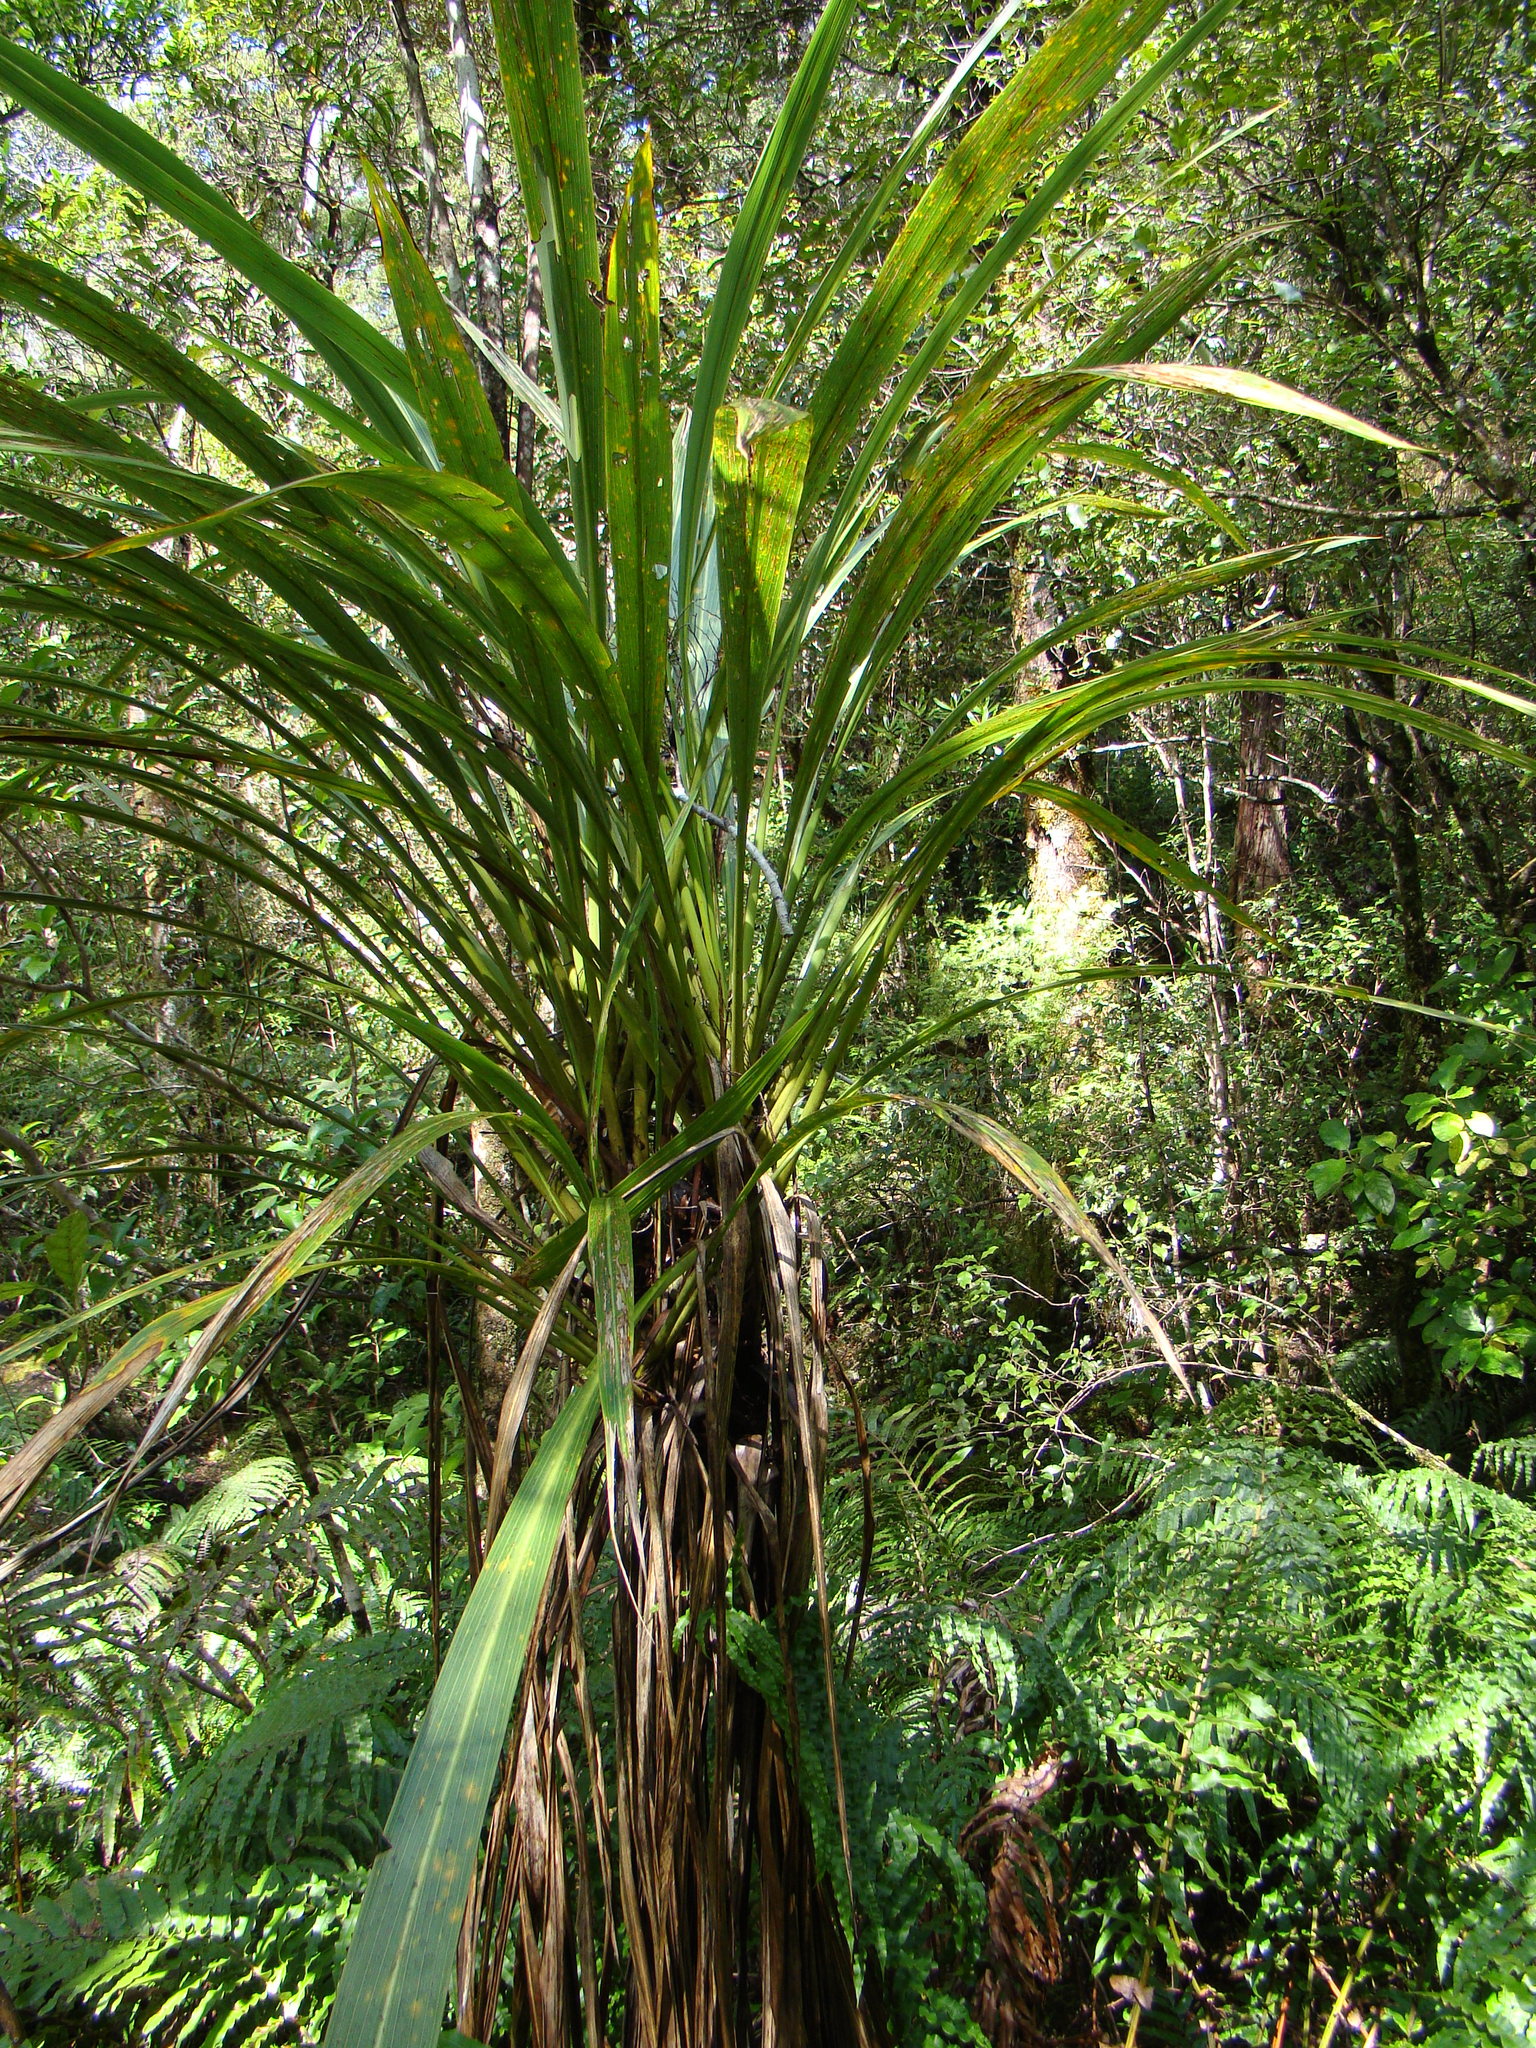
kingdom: Plantae
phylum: Tracheophyta
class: Liliopsida
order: Asparagales
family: Asparagaceae
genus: Cordyline
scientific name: Cordyline banksii
